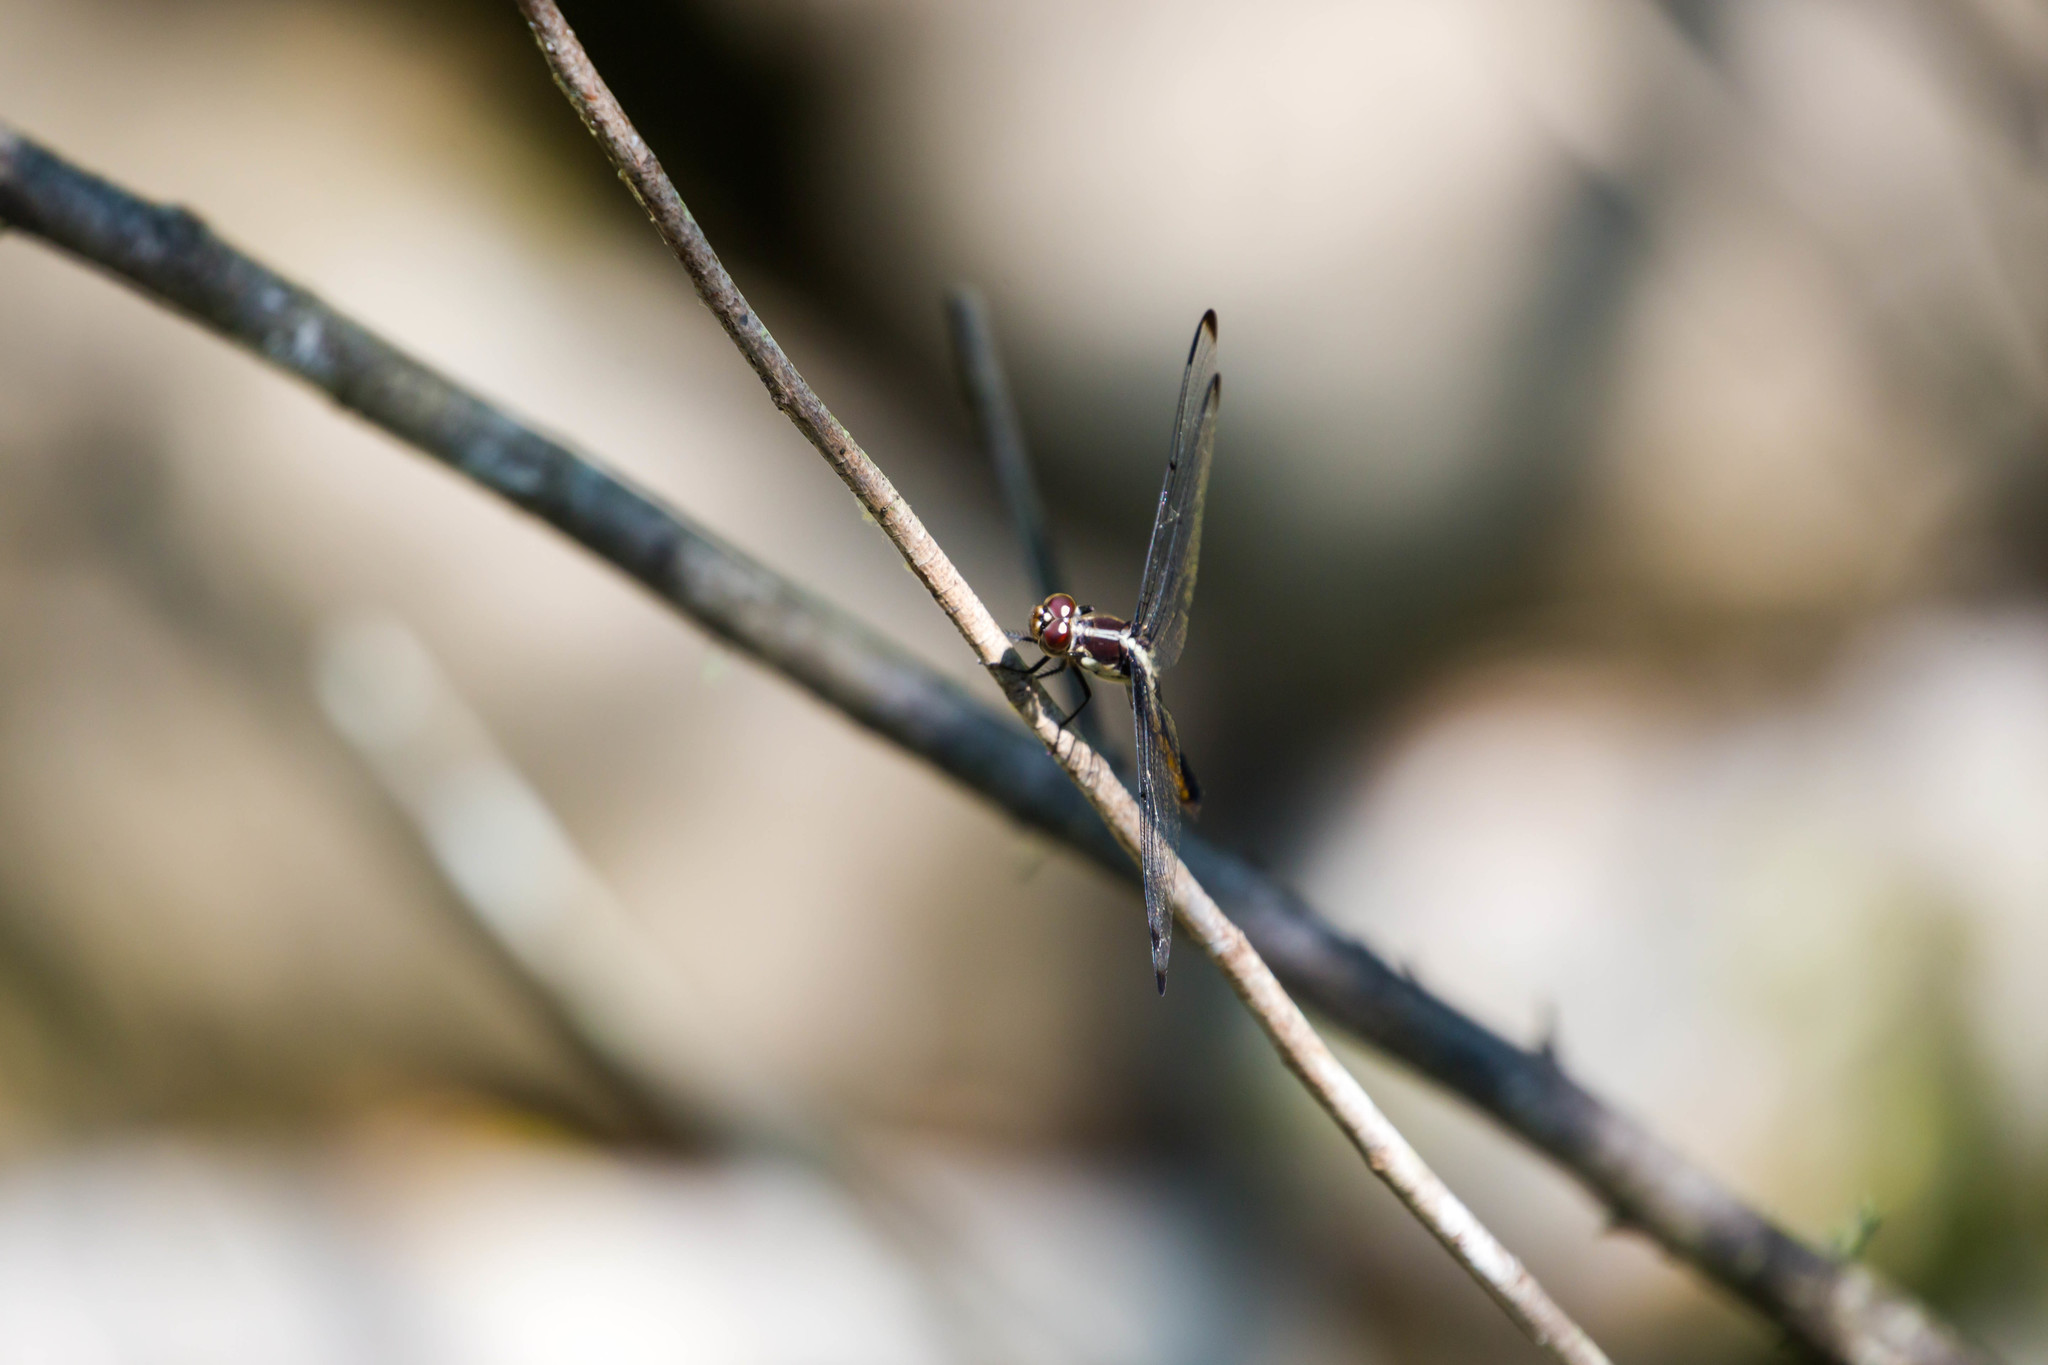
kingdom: Animalia
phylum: Arthropoda
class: Insecta
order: Odonata
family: Libellulidae
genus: Libellula
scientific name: Libellula incesta
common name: Slaty skimmer
